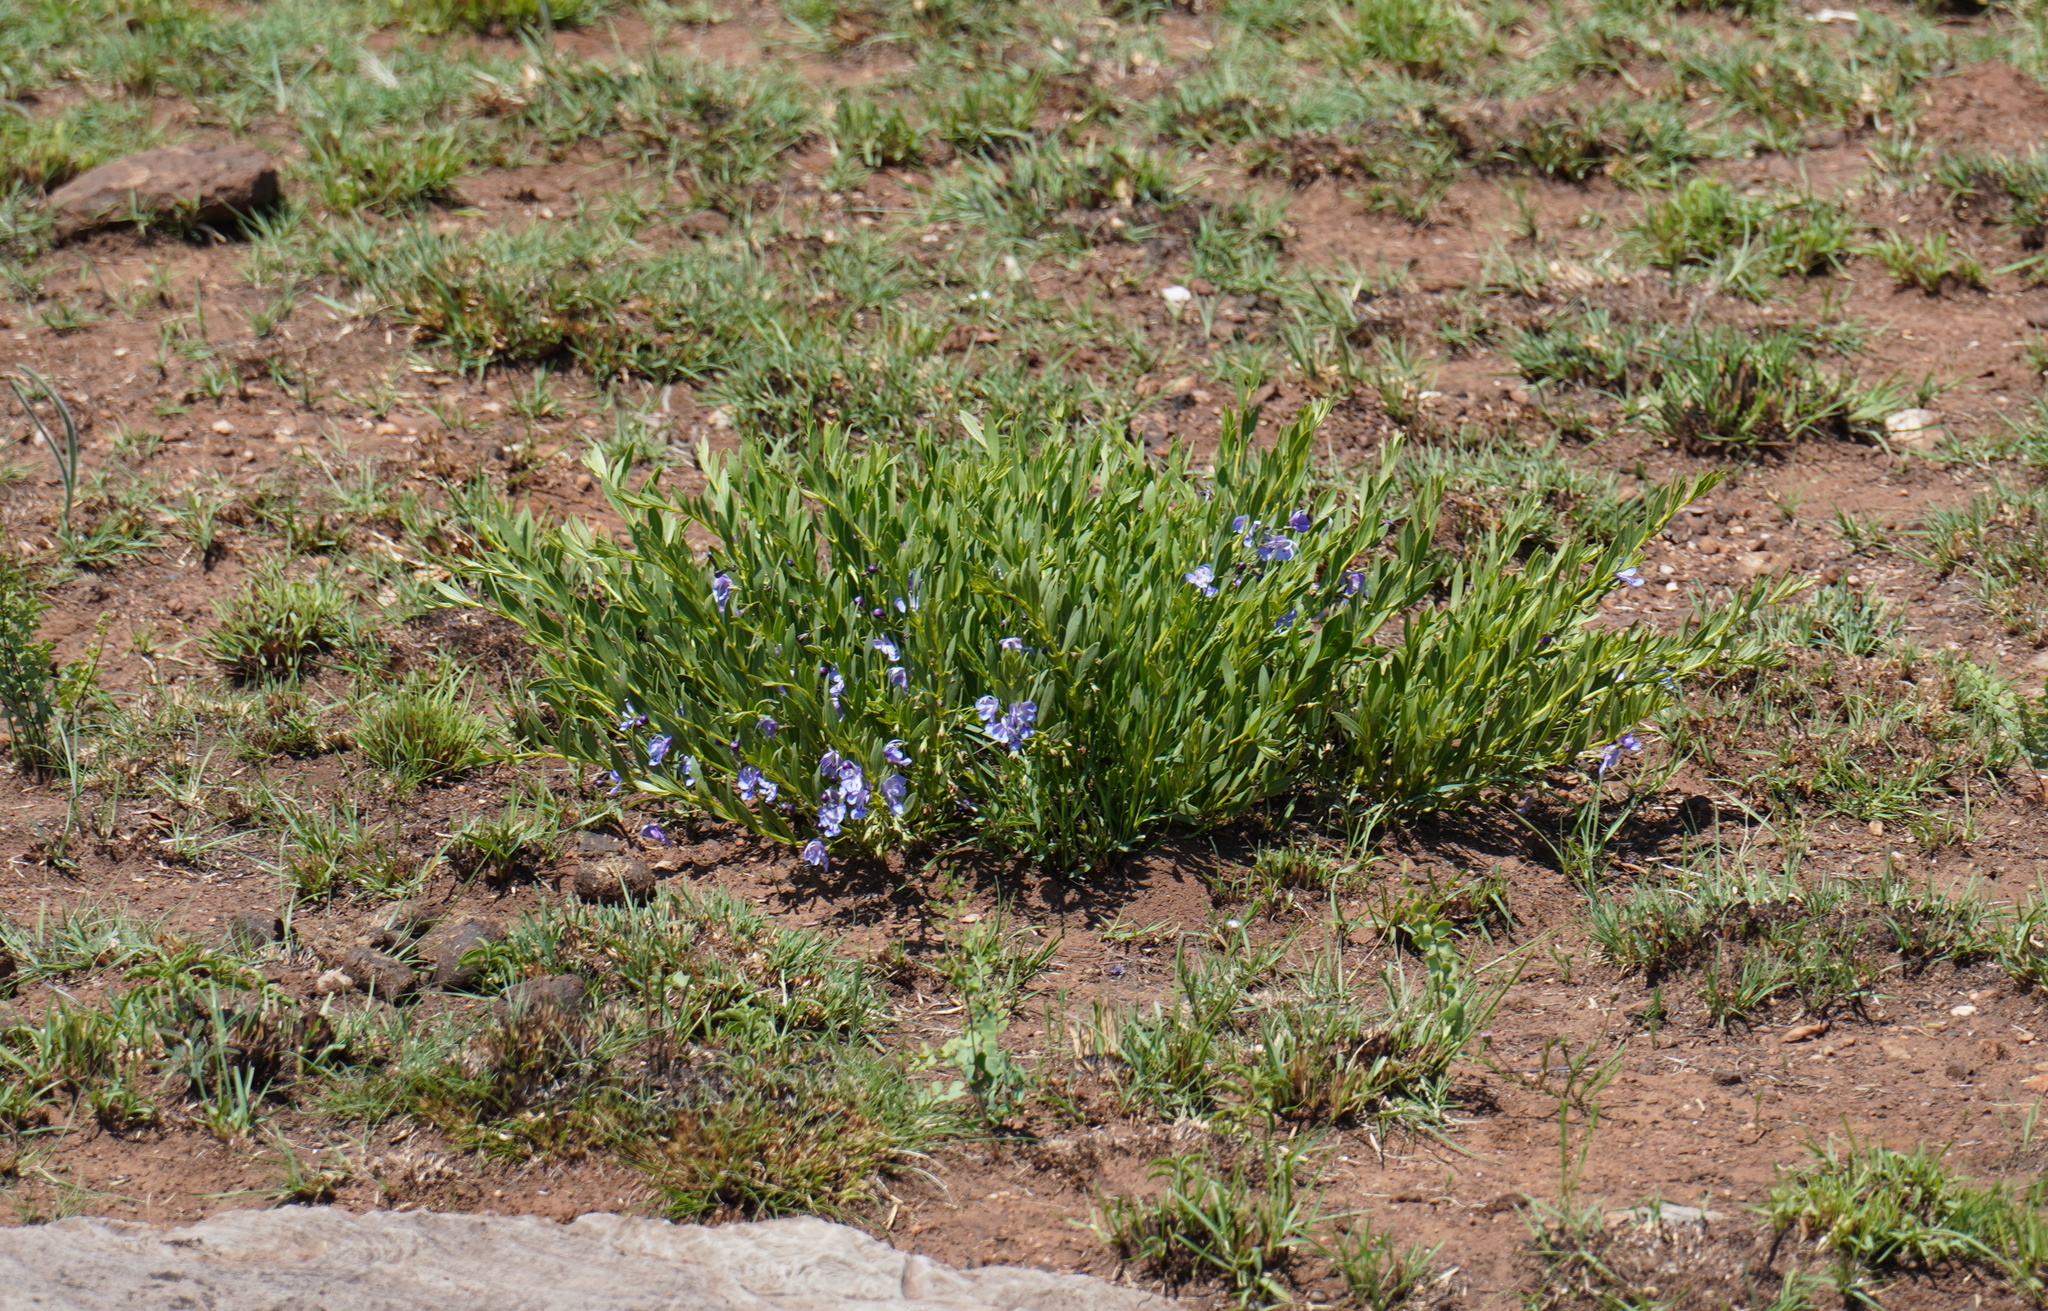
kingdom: Plantae
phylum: Tracheophyta
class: Magnoliopsida
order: Lamiales
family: Lamiaceae
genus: Rotheca
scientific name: Rotheca hirsuta
